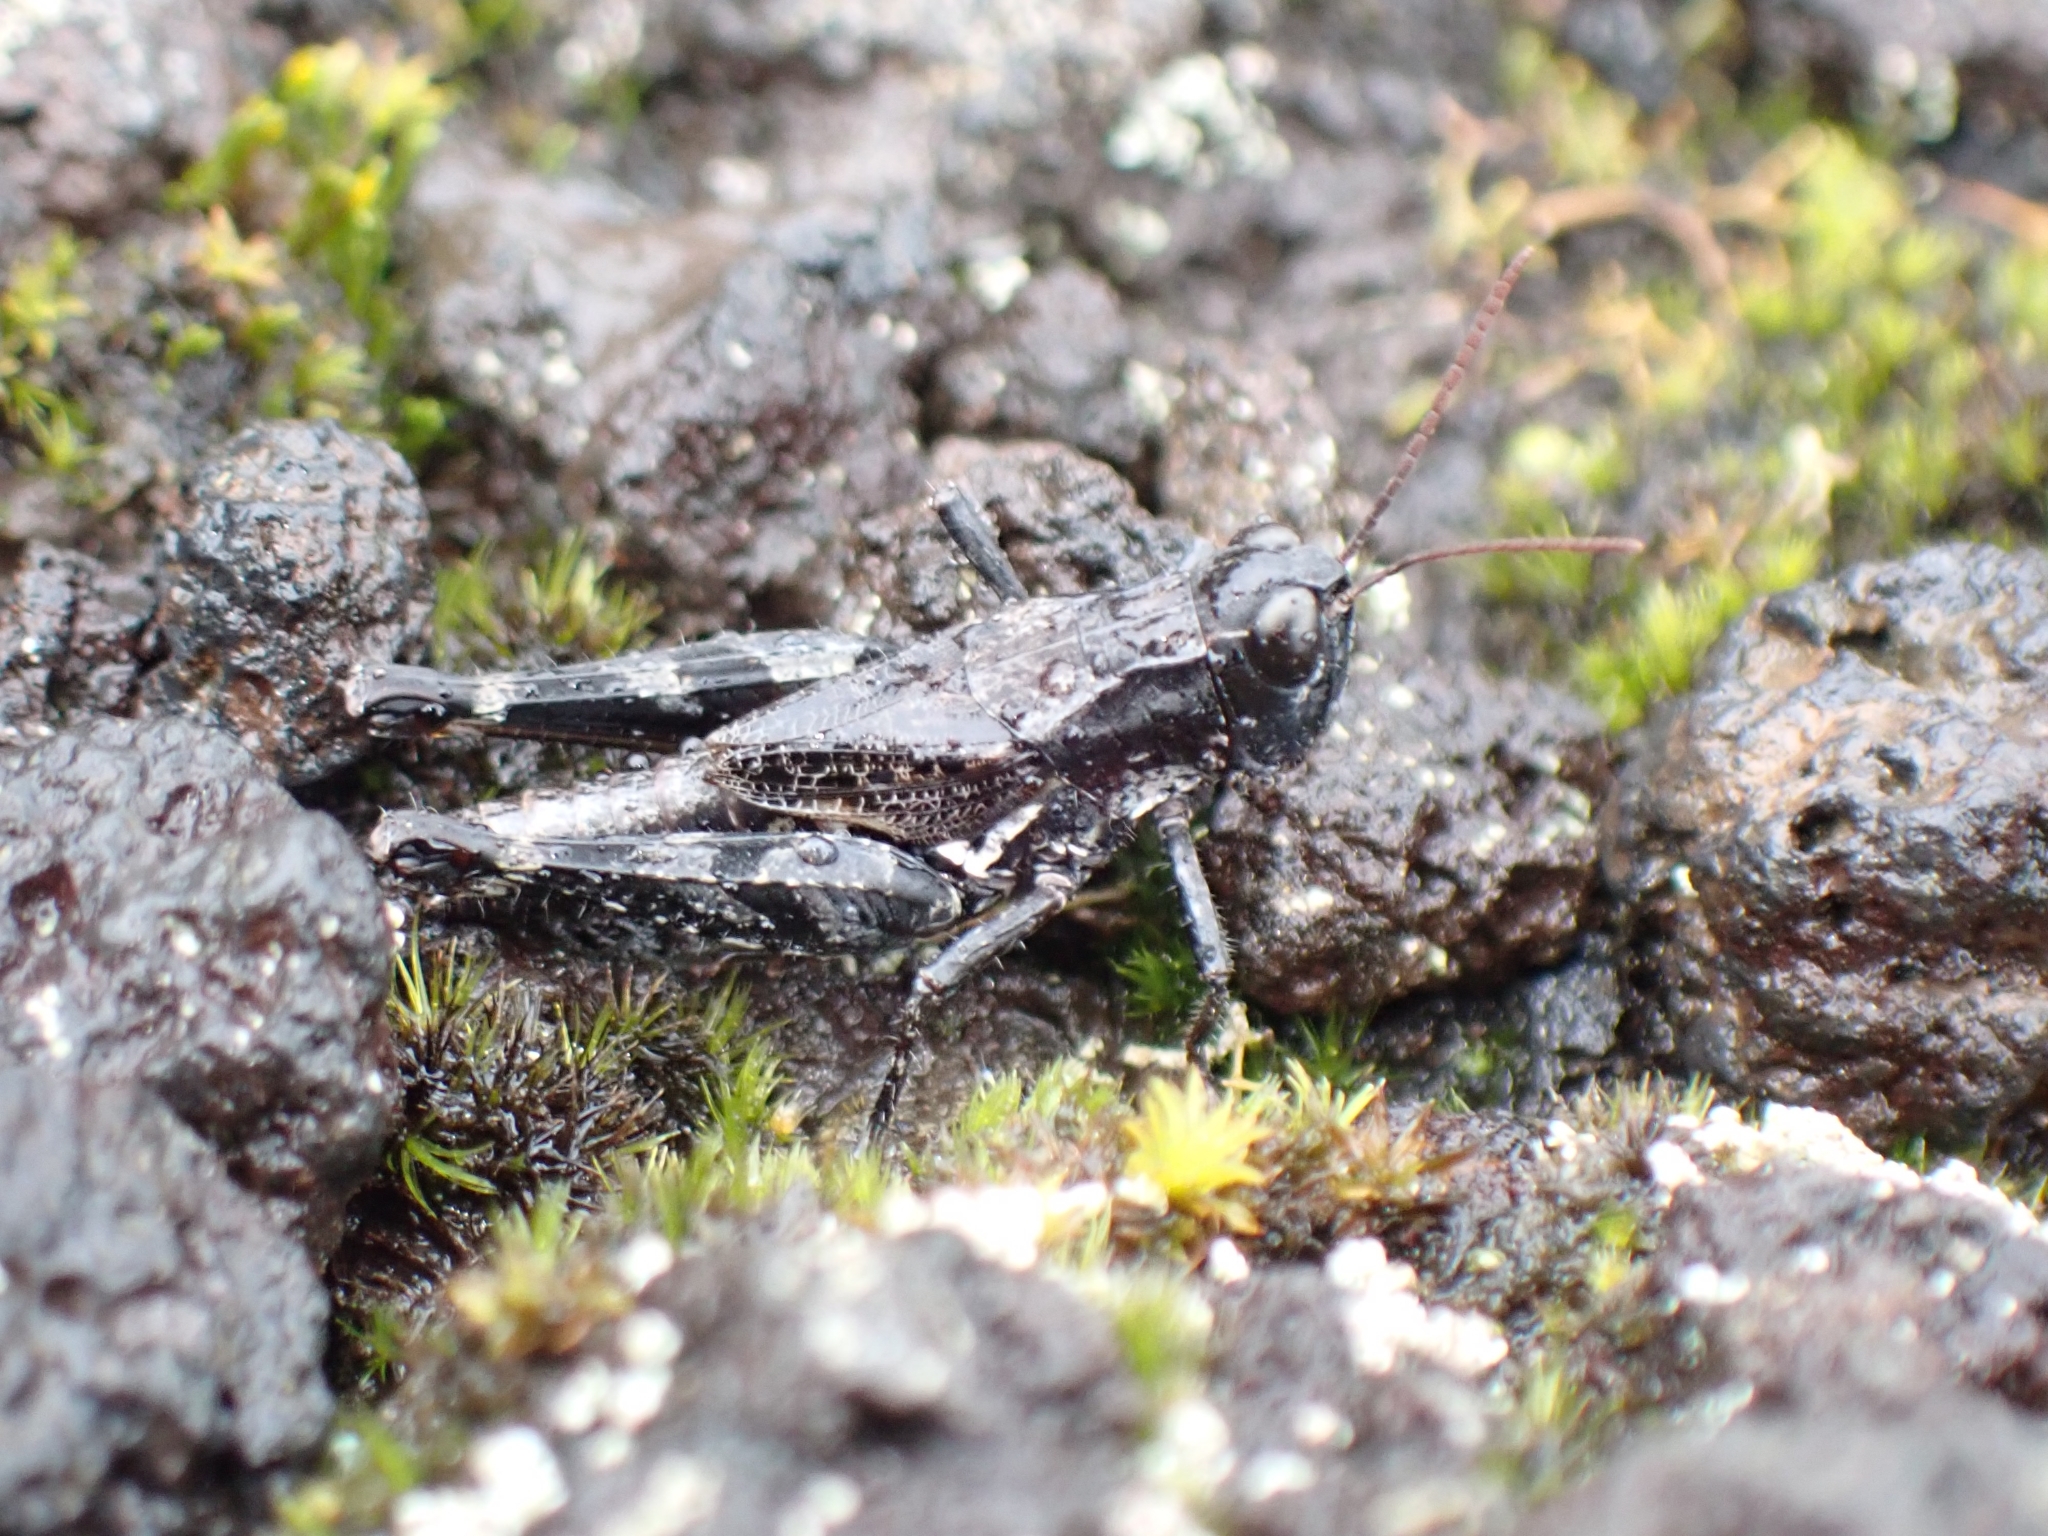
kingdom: Animalia
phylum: Arthropoda
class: Insecta
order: Orthoptera
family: Acrididae
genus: Phaulacridium
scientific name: Phaulacridium marginale
